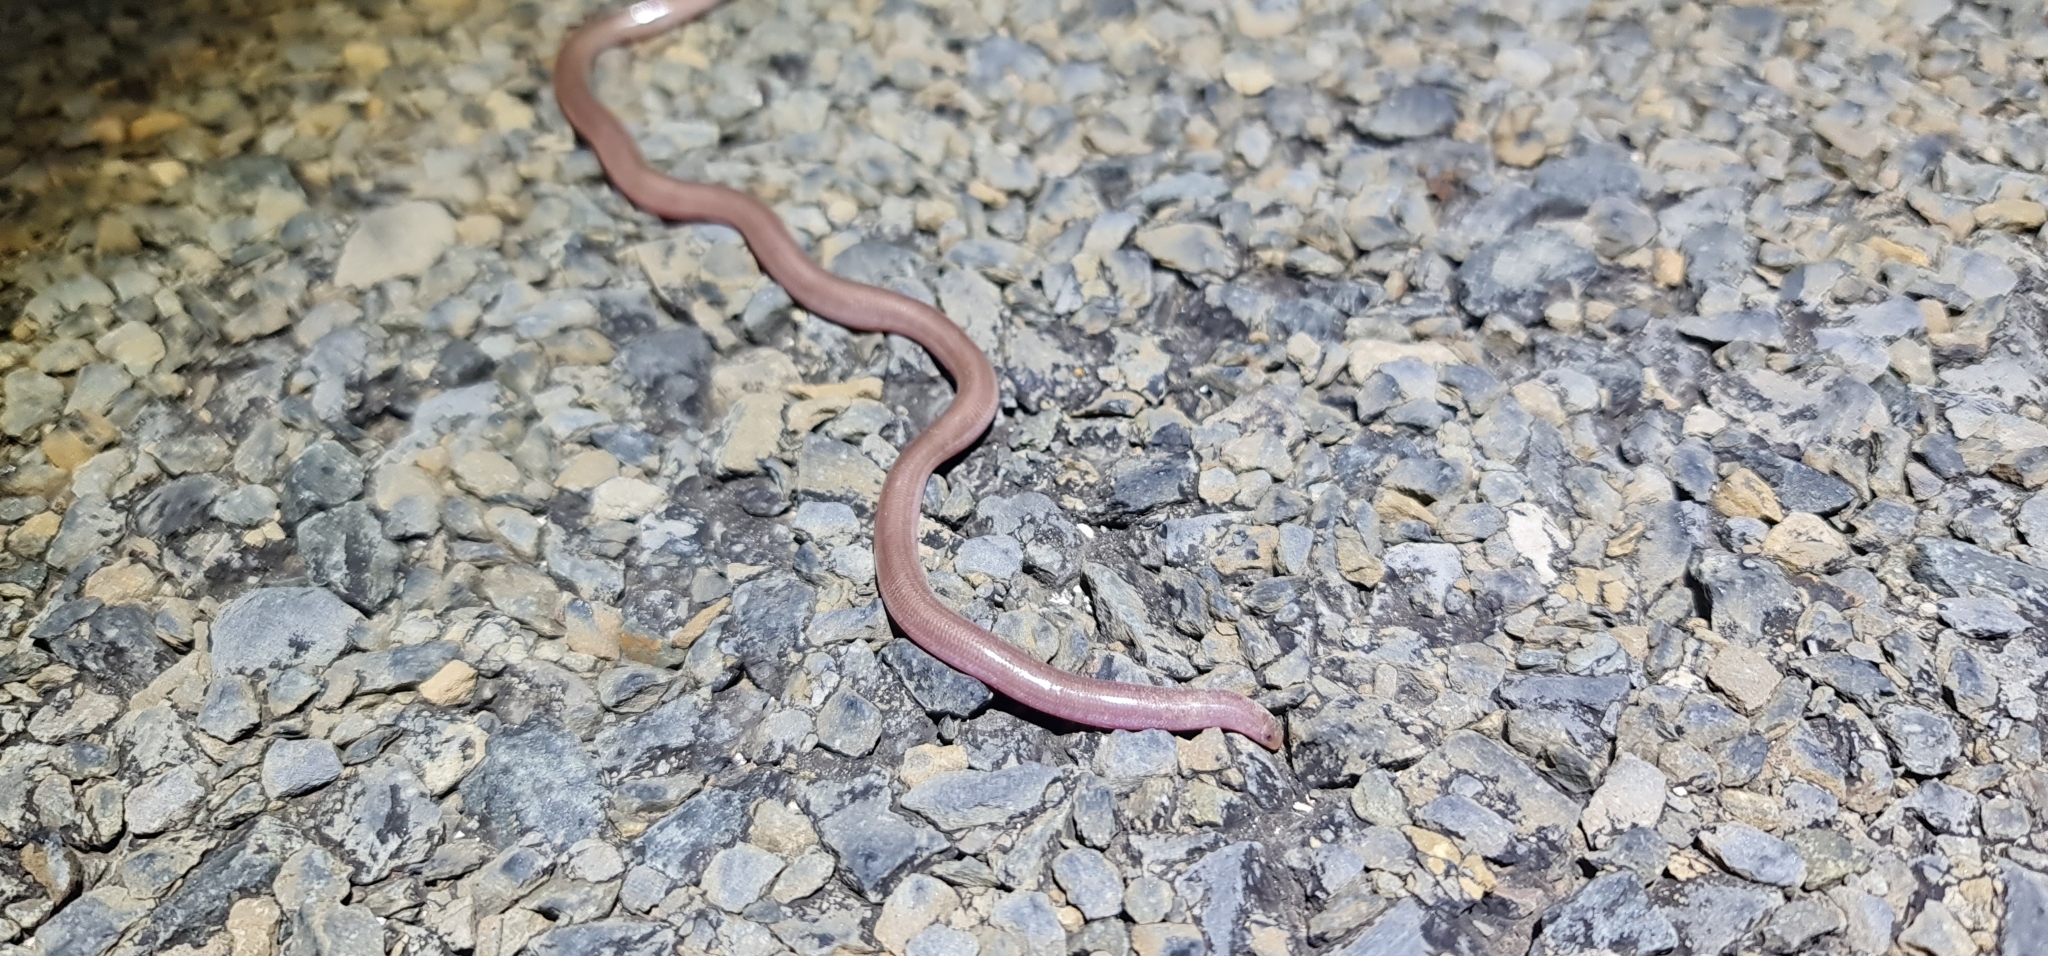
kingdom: Animalia
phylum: Chordata
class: Squamata
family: Typhlopidae
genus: Anilios
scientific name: Anilios bituberculatus
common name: Prong-snouted blind snake
